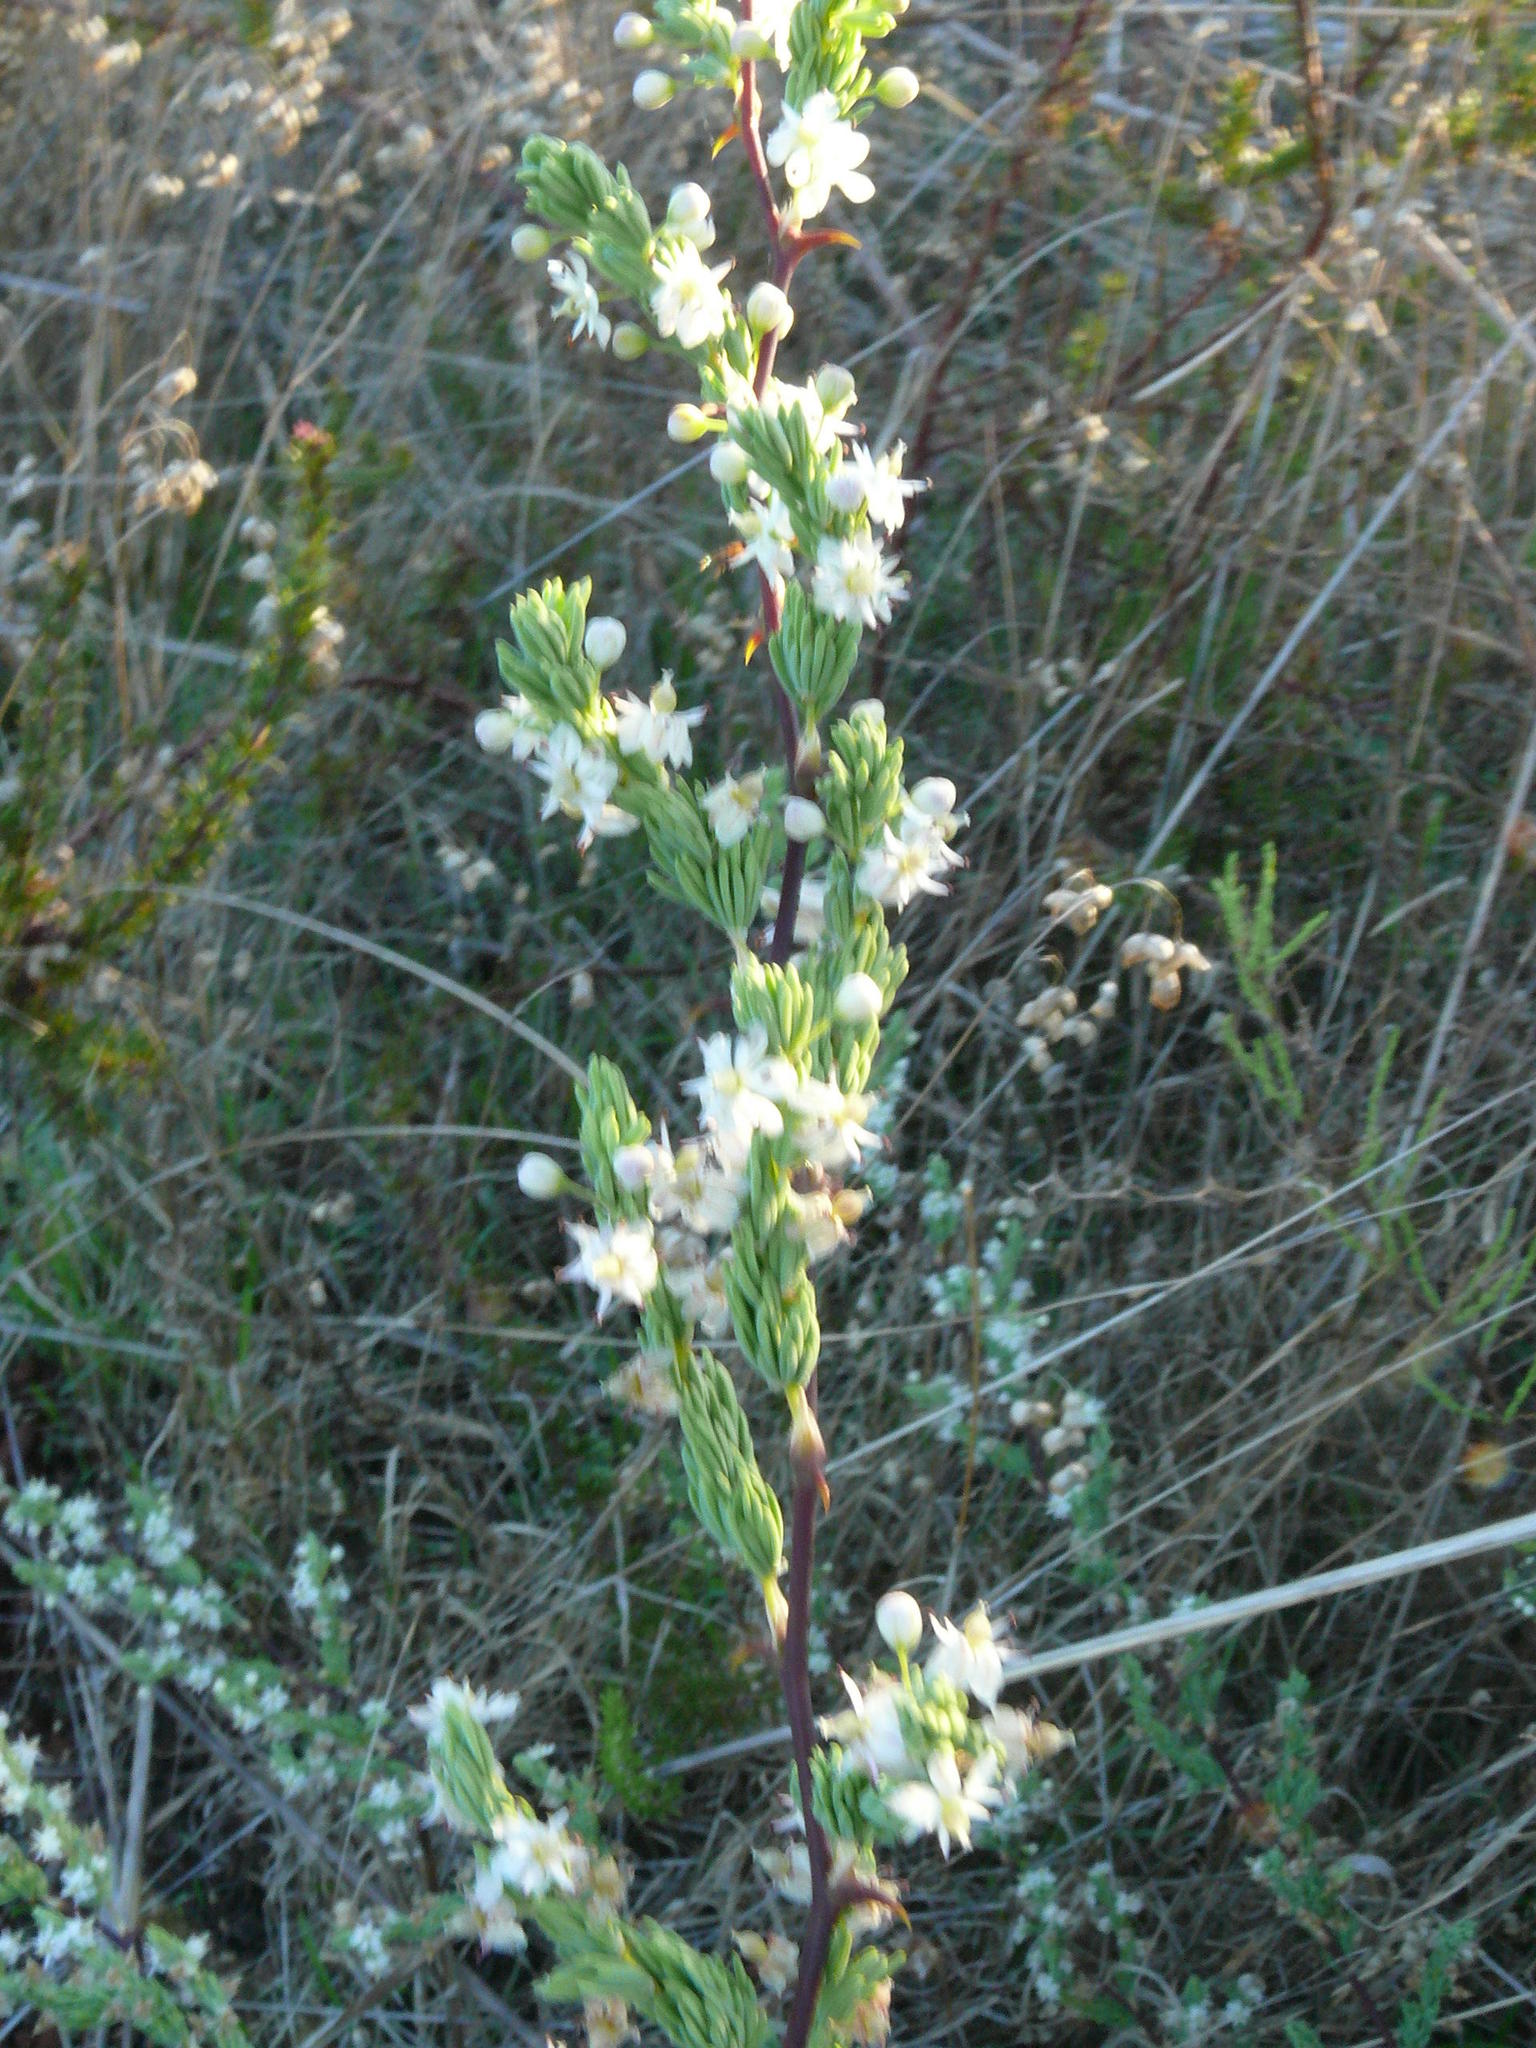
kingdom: Plantae
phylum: Tracheophyta
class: Liliopsida
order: Asparagales
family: Asparagaceae
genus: Asparagus
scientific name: Asparagus rubicundus
